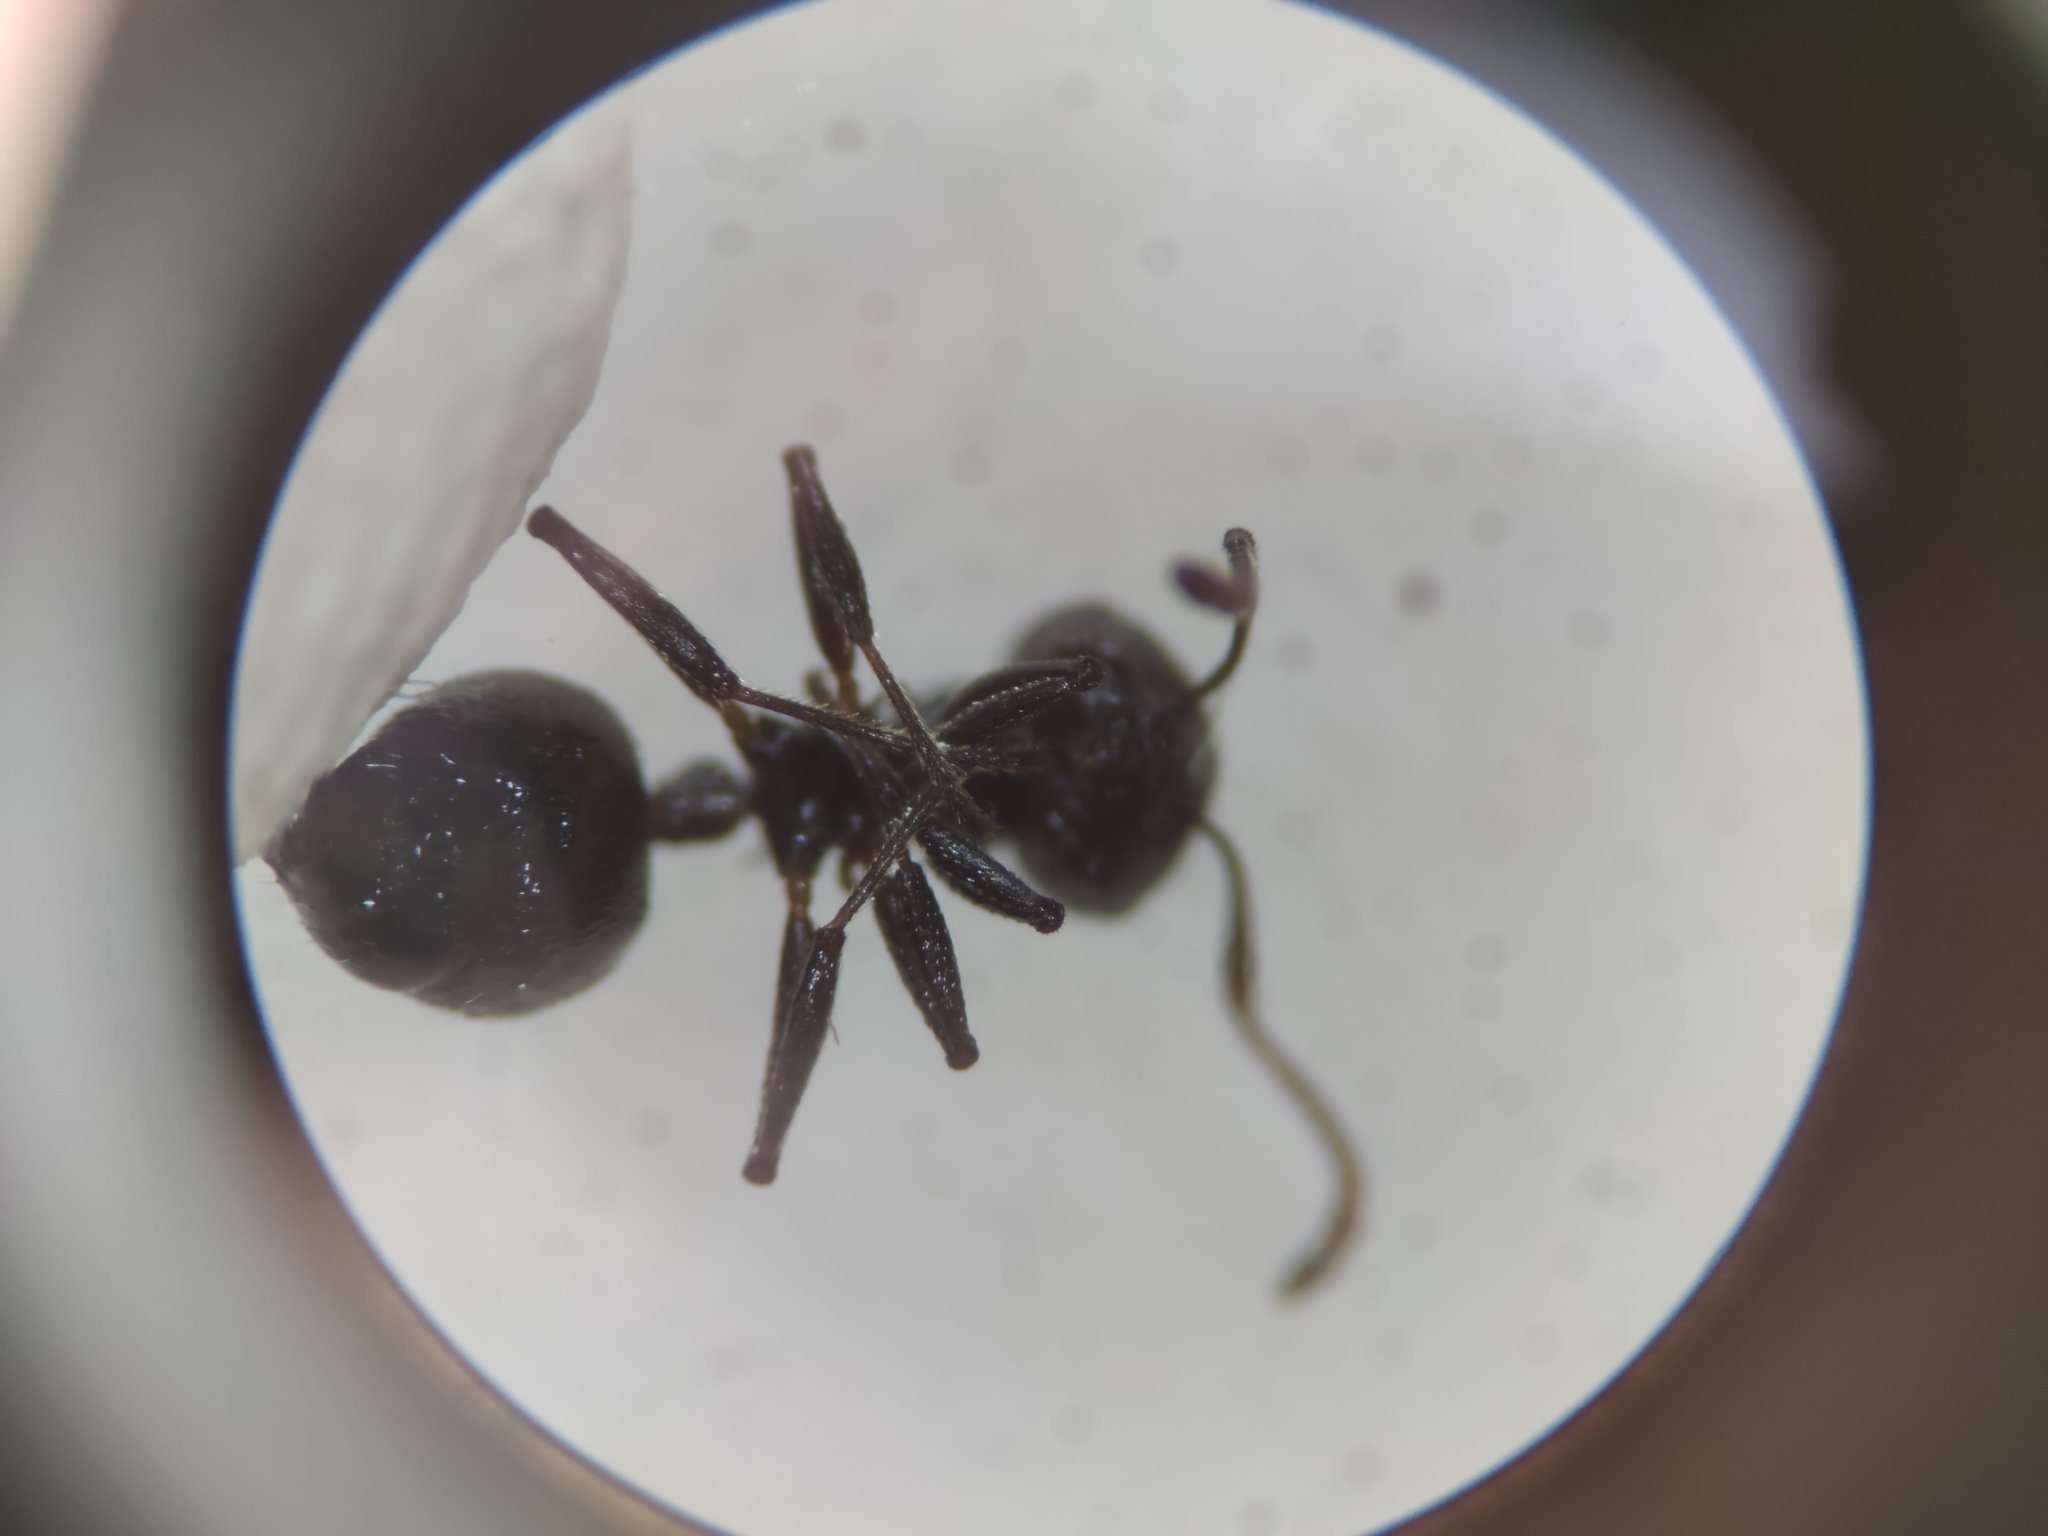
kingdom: Animalia
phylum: Arthropoda
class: Insecta
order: Hymenoptera
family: Formicidae
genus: Crematogaster
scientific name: Crematogaster peringueyi
